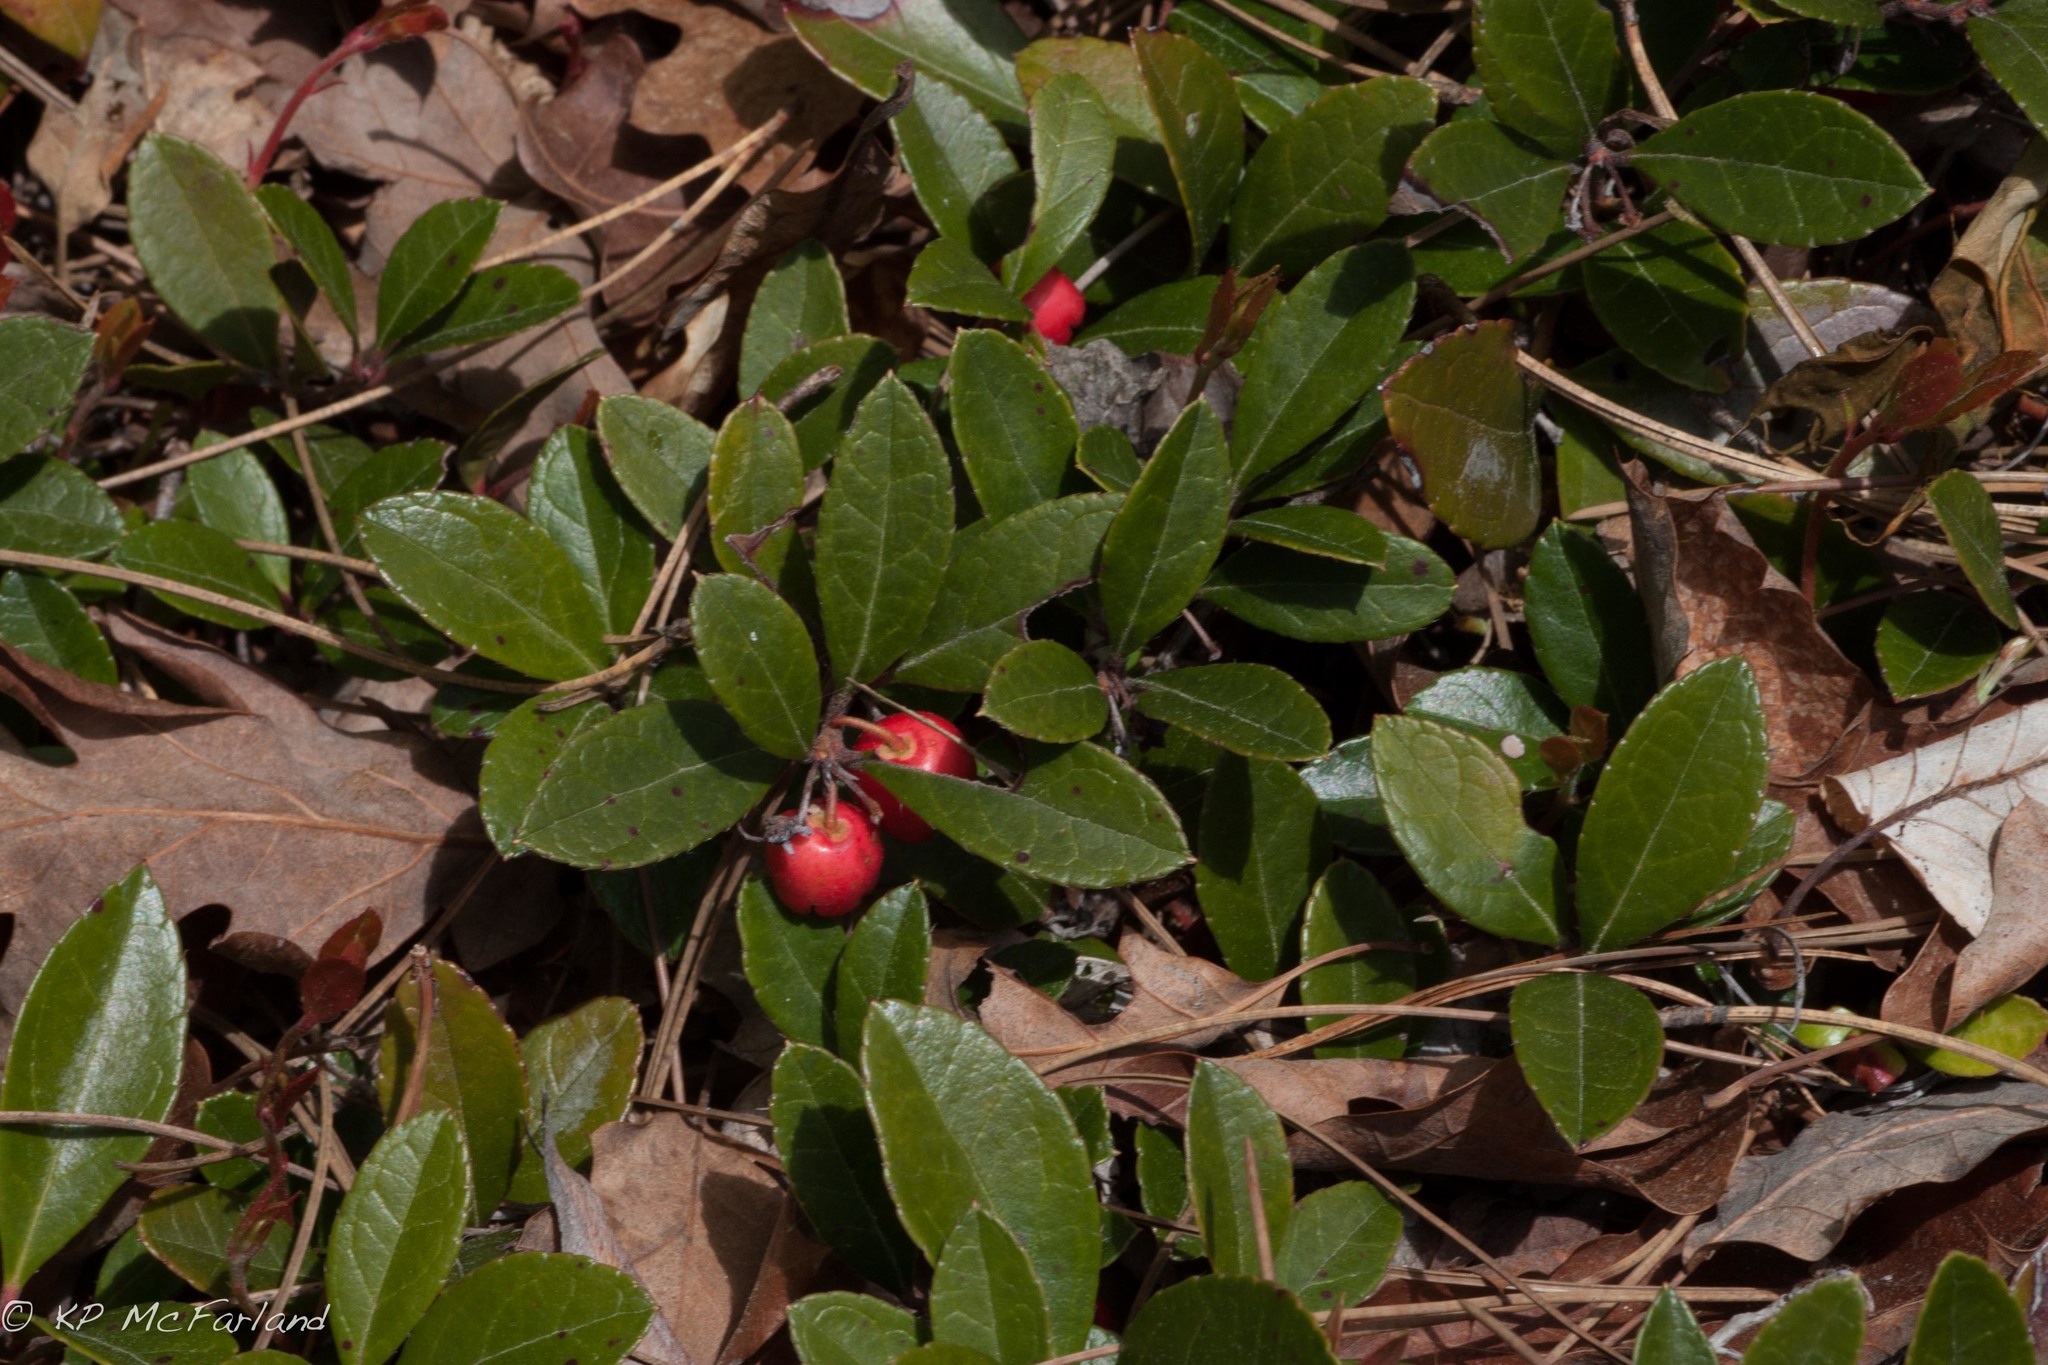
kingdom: Plantae
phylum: Tracheophyta
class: Magnoliopsida
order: Ericales
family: Ericaceae
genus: Gaultheria
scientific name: Gaultheria procumbens
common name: Checkerberry
